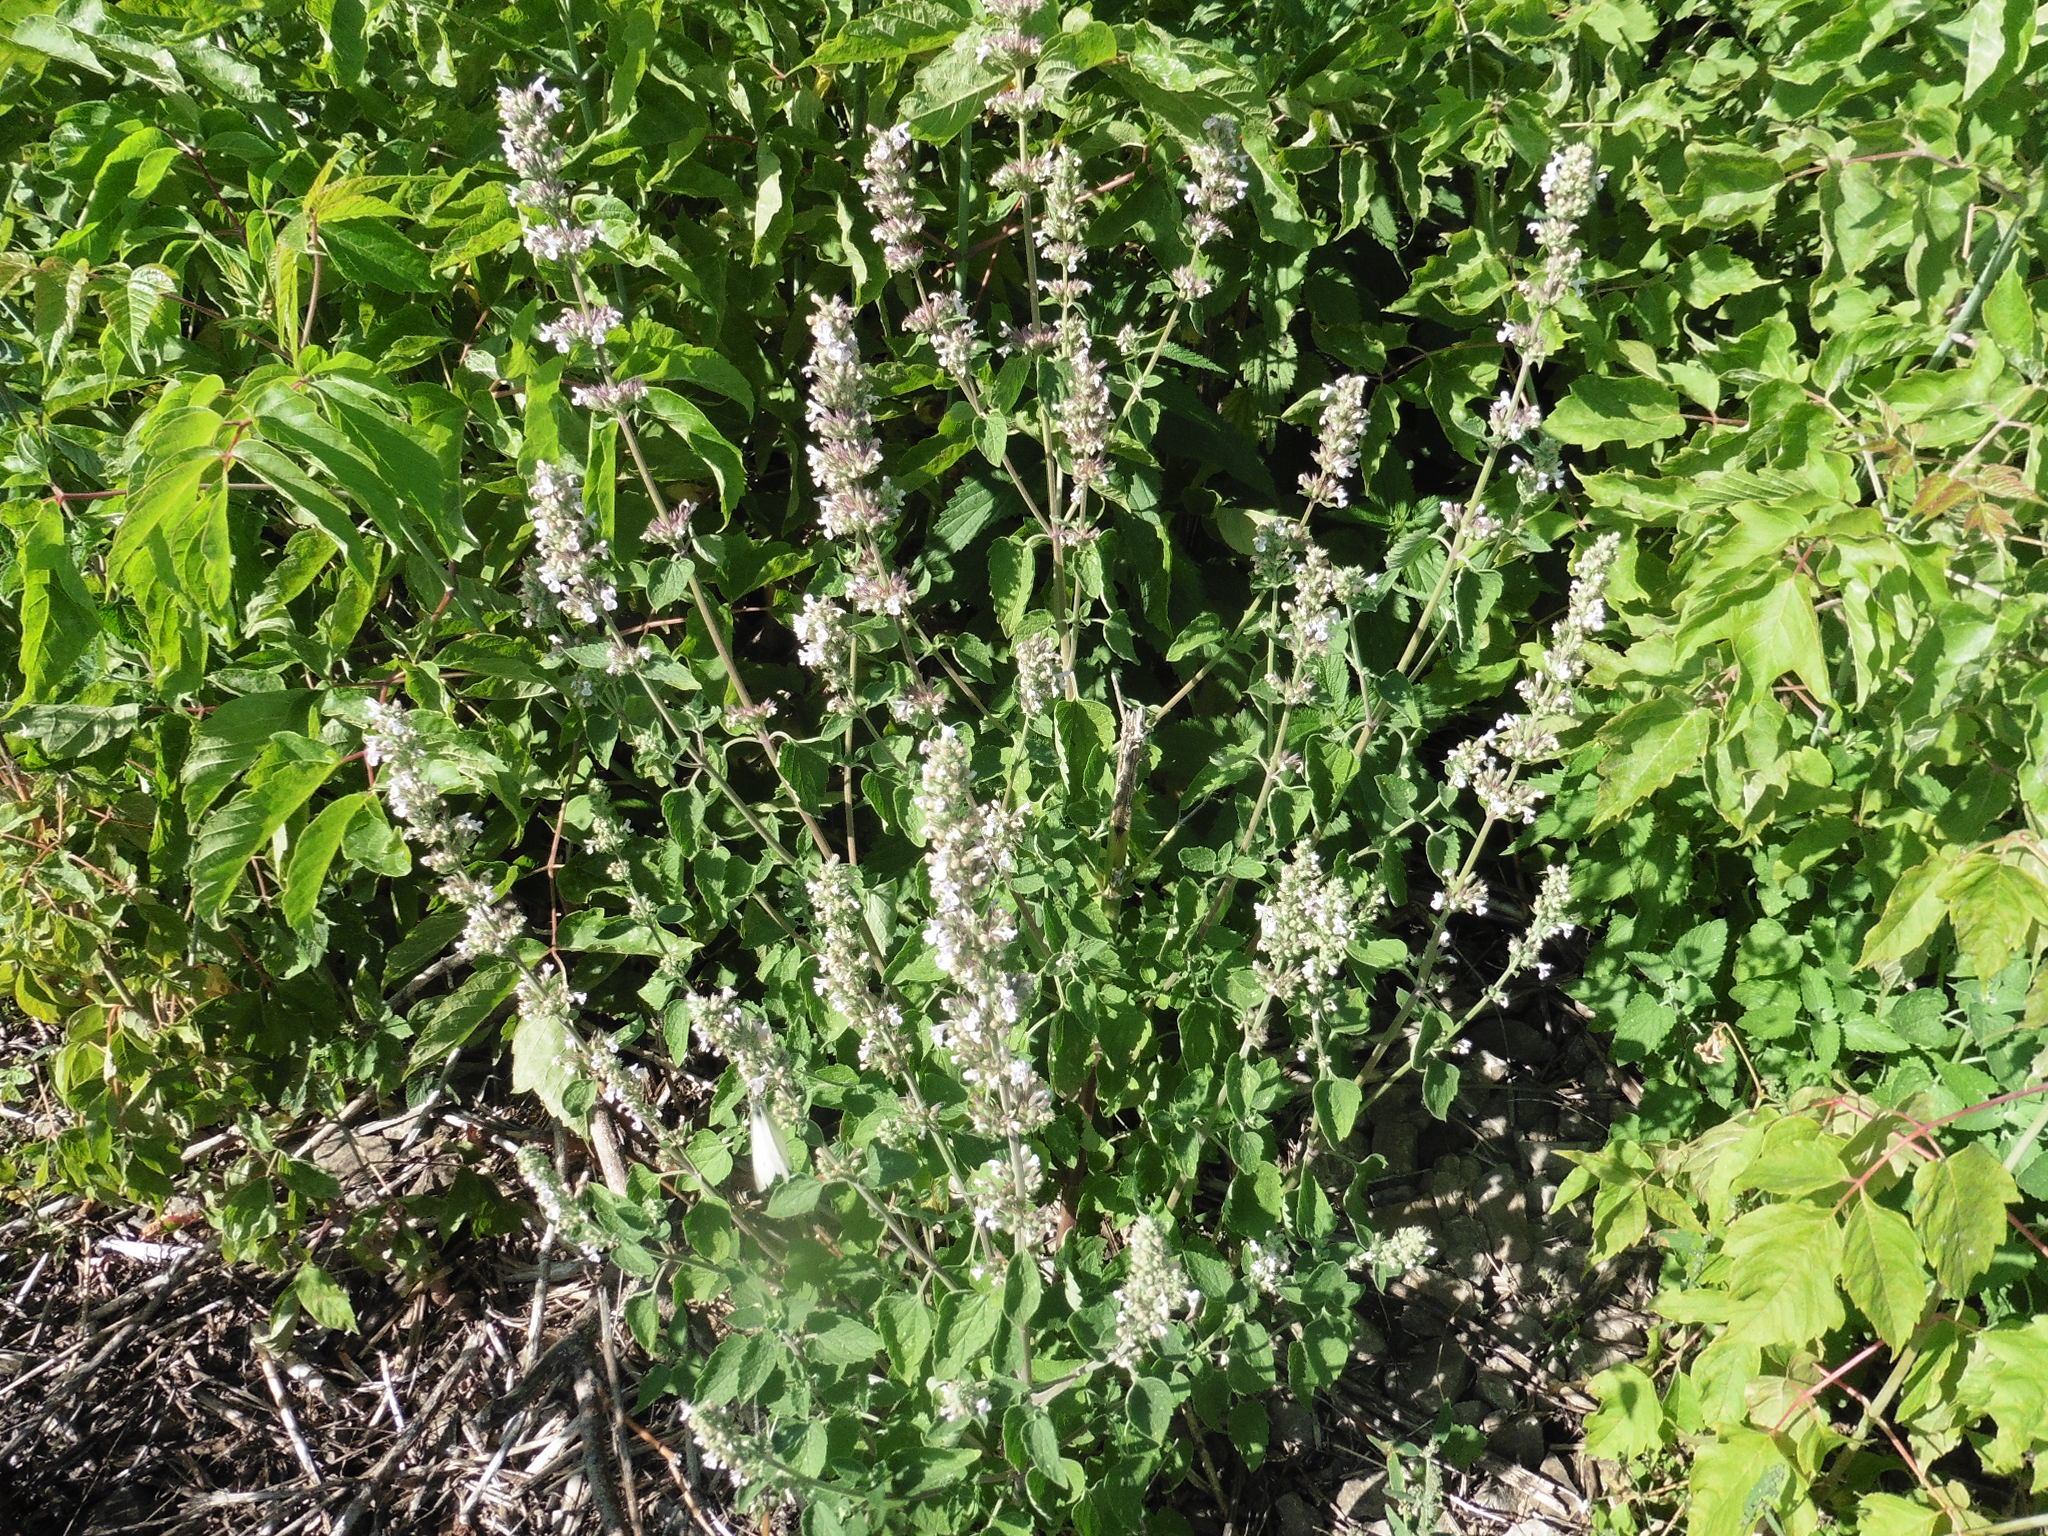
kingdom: Plantae
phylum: Tracheophyta
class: Magnoliopsida
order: Lamiales
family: Lamiaceae
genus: Nepeta
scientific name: Nepeta cataria
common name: Catnip
